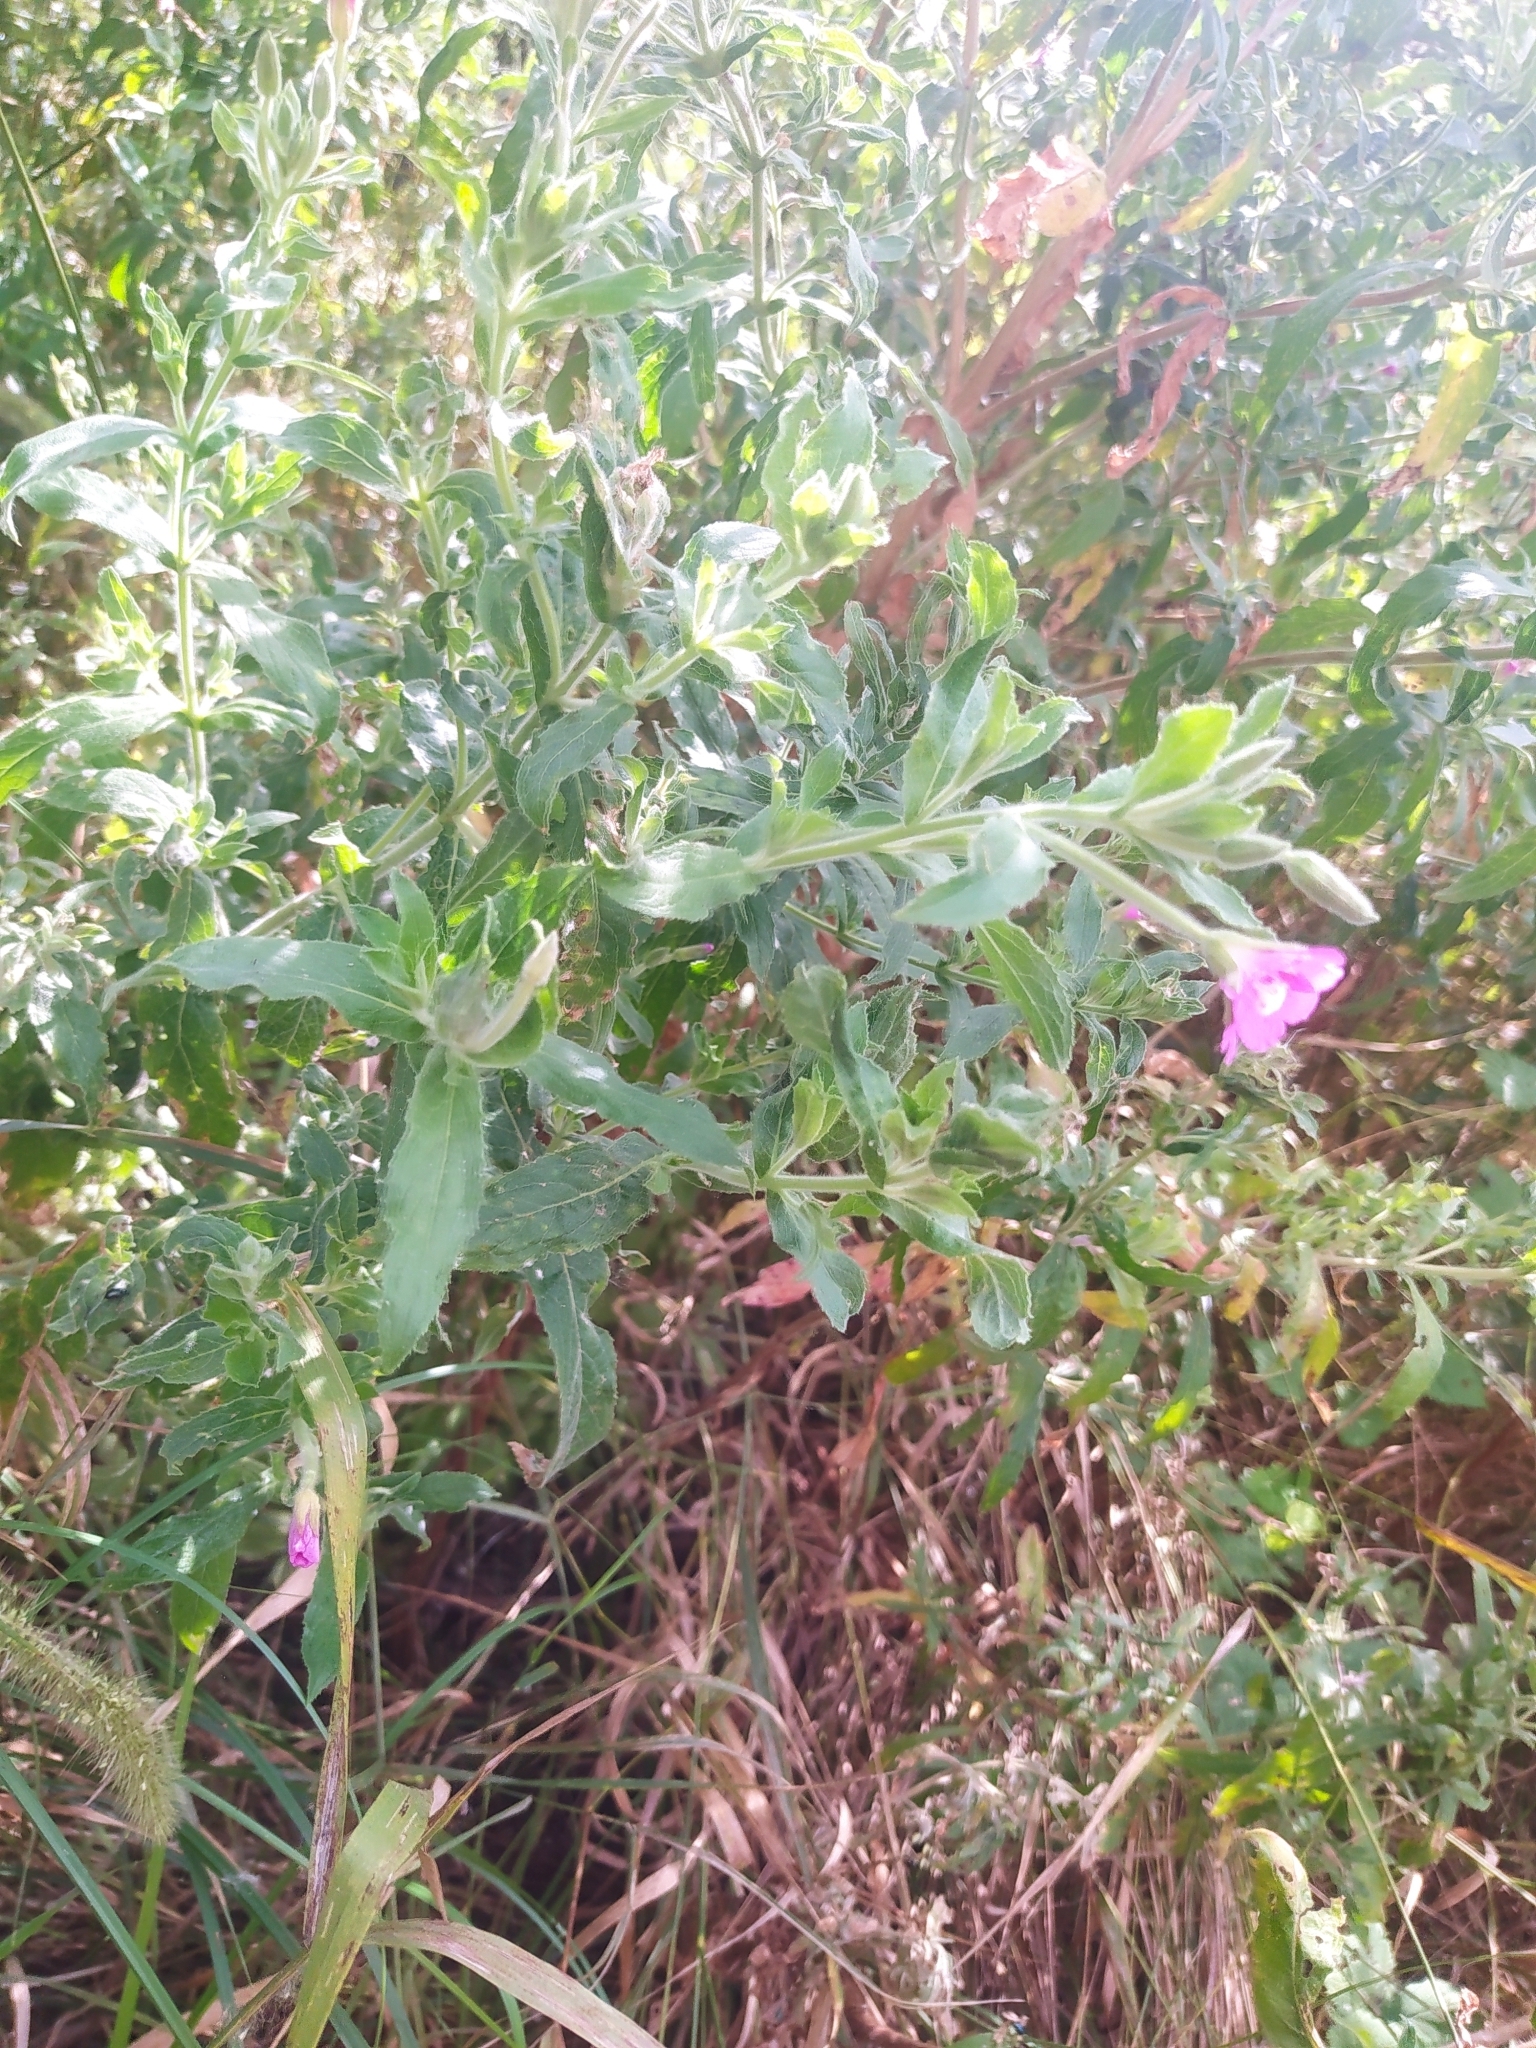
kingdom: Plantae
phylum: Tracheophyta
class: Magnoliopsida
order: Myrtales
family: Onagraceae
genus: Epilobium
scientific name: Epilobium hirsutum
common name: Great willowherb
